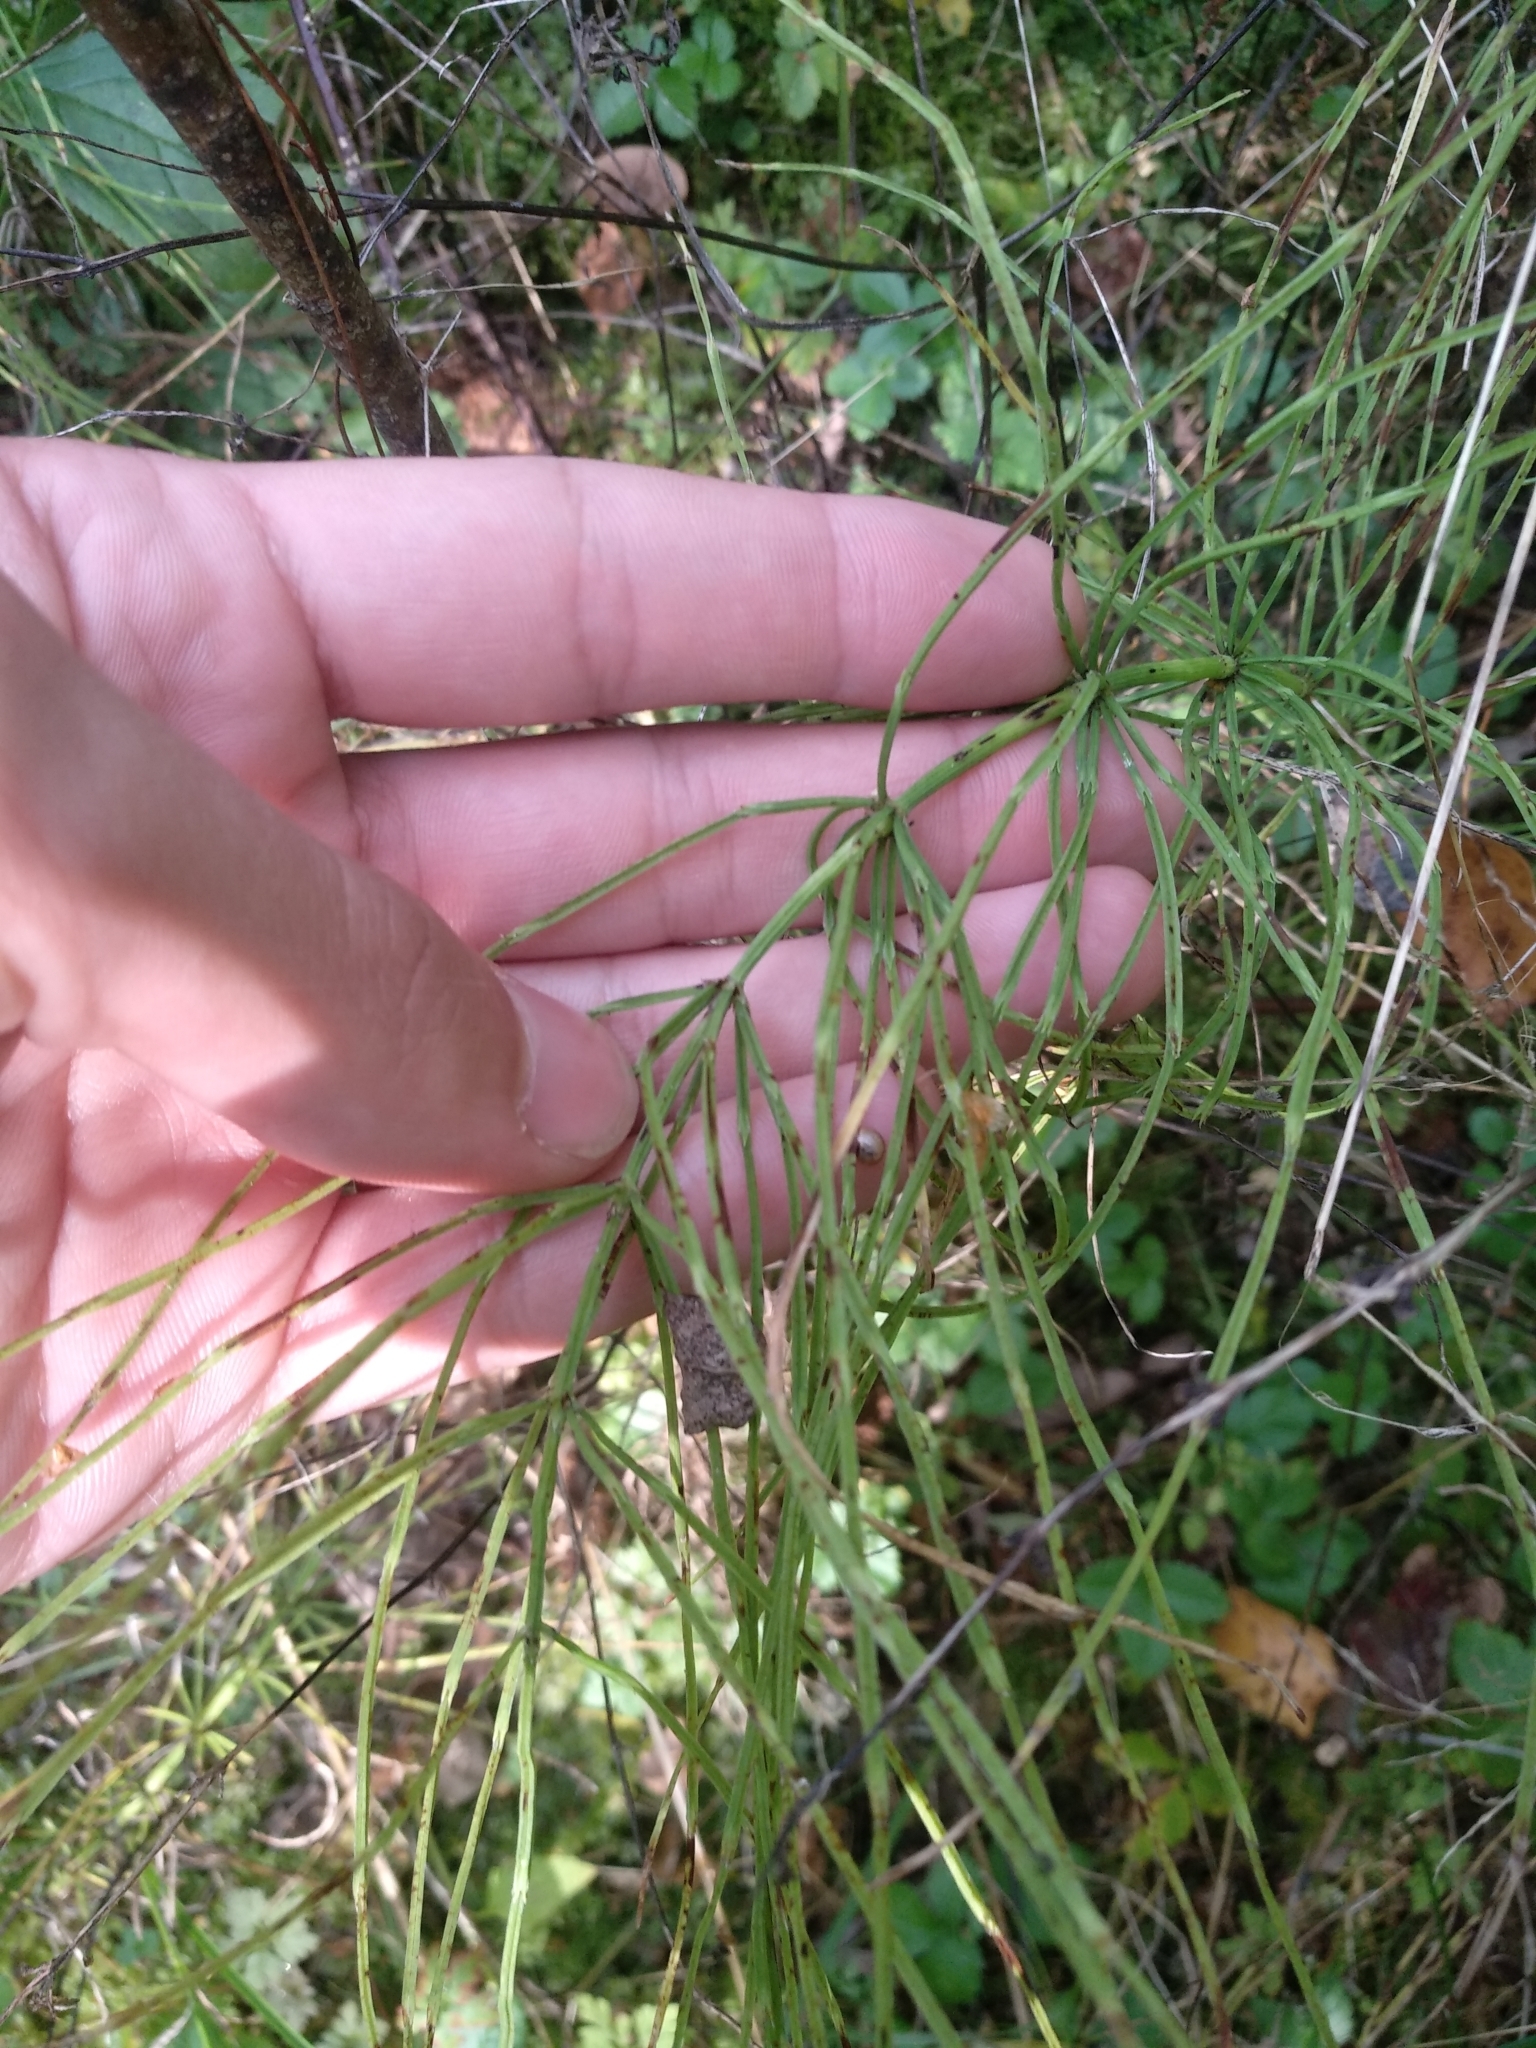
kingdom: Plantae
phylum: Tracheophyta
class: Polypodiopsida
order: Equisetales
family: Equisetaceae
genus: Equisetum
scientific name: Equisetum arvense
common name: Field horsetail
